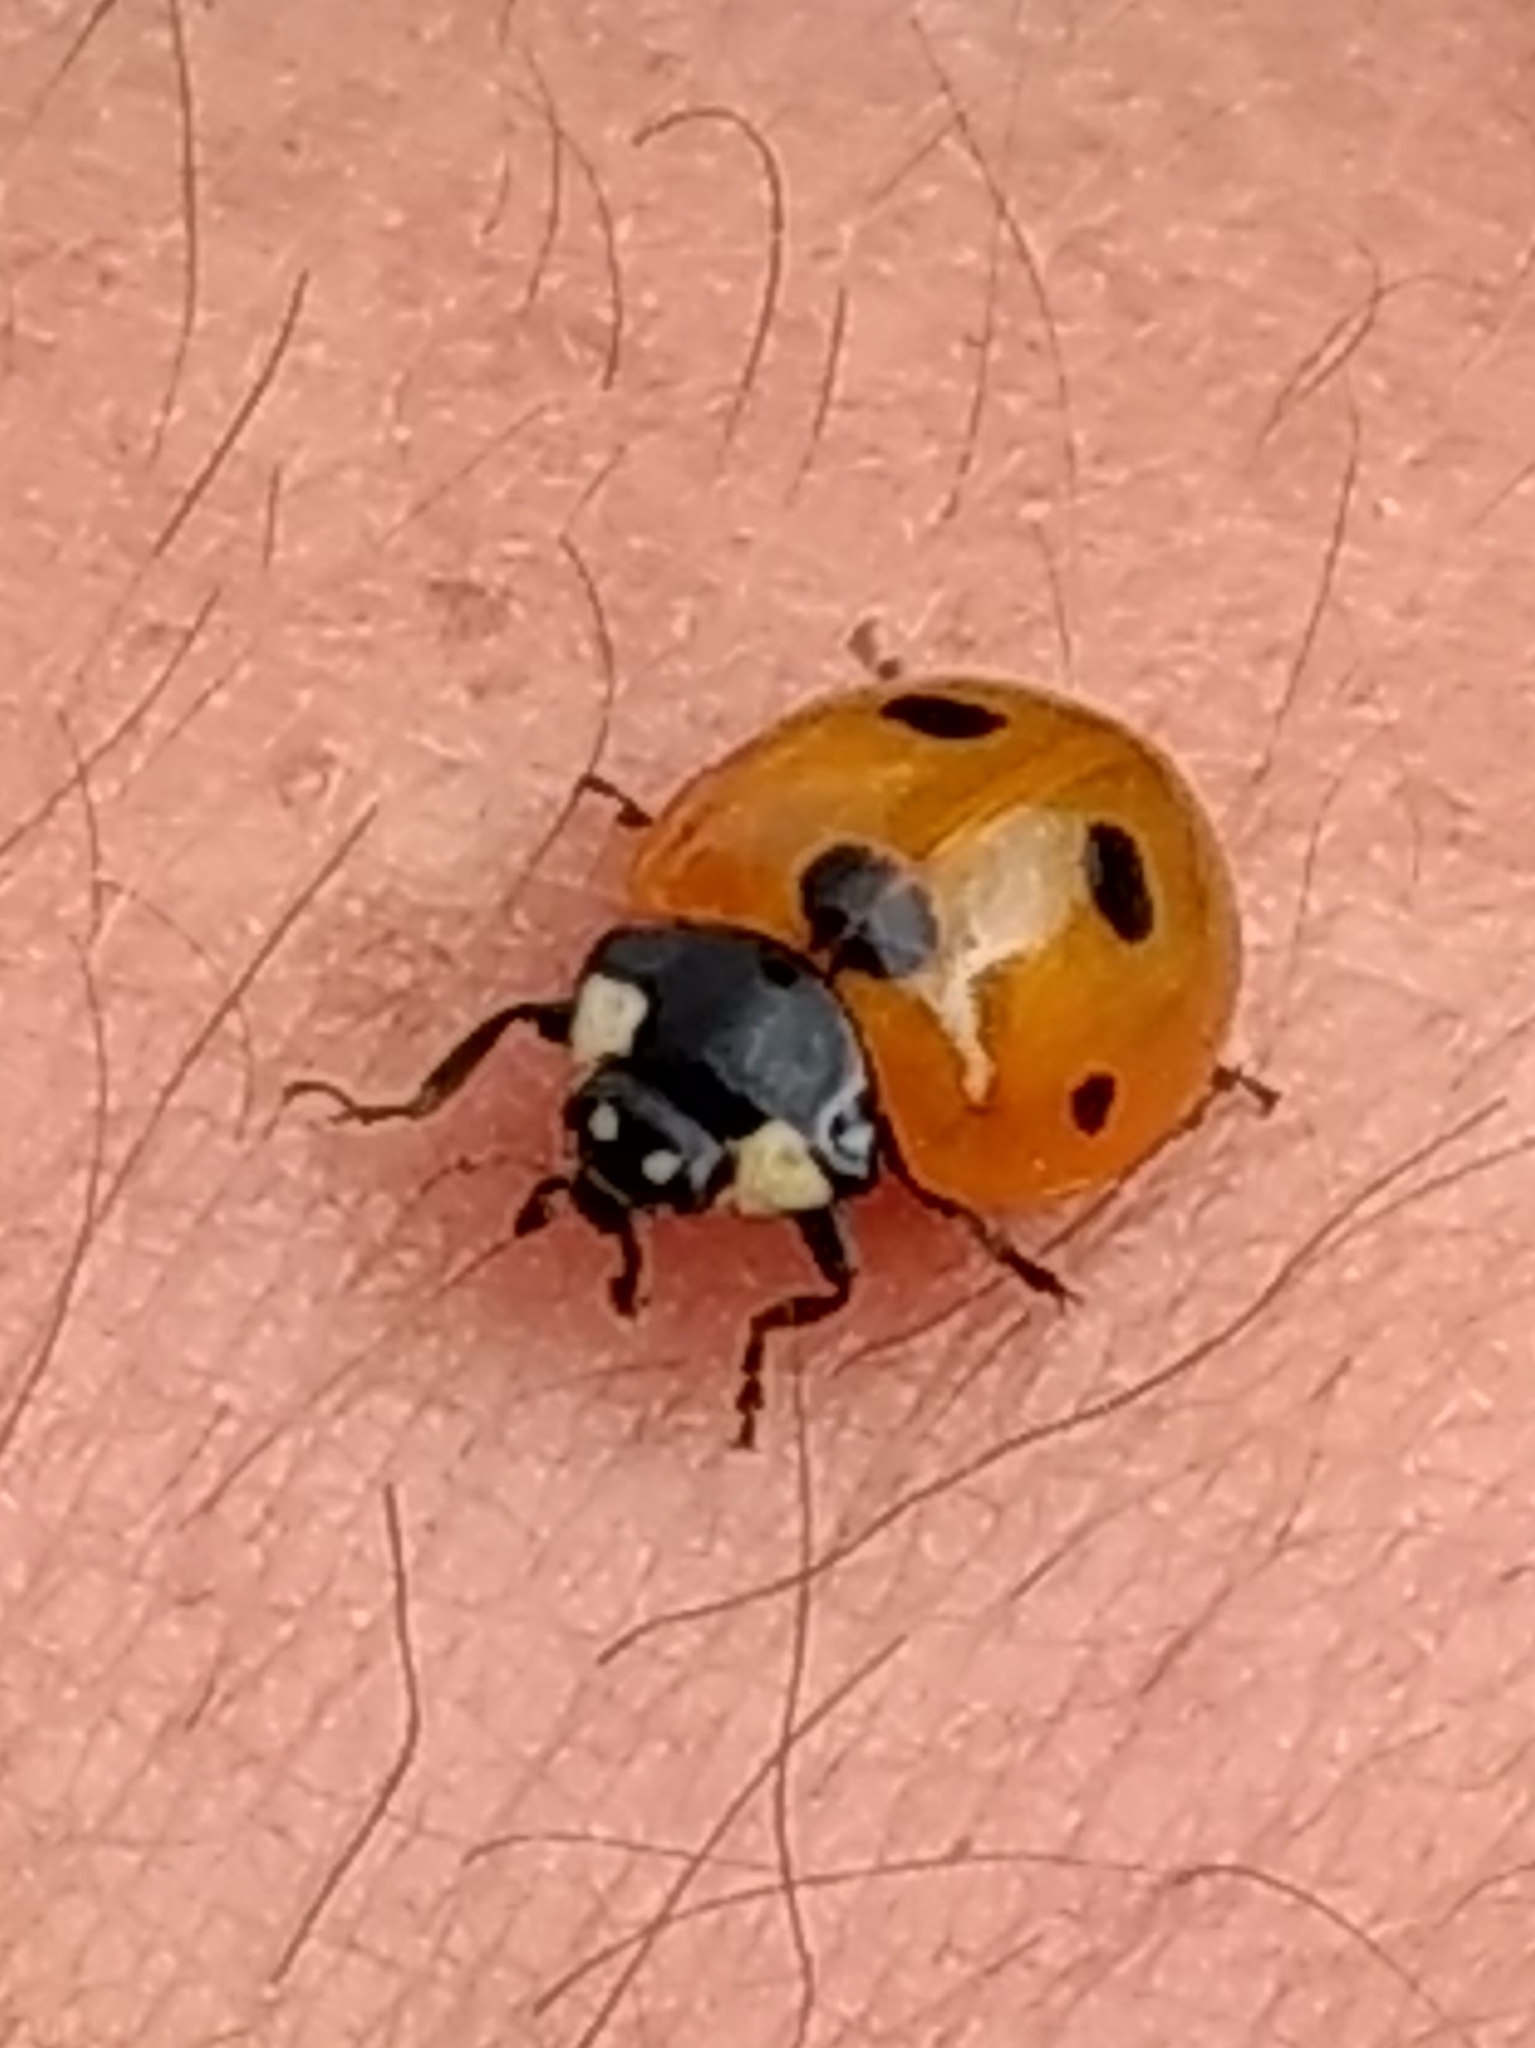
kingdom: Animalia
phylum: Arthropoda
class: Insecta
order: Coleoptera
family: Coccinellidae
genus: Coccinella
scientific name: Coccinella septempunctata
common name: Sevenspotted lady beetle
